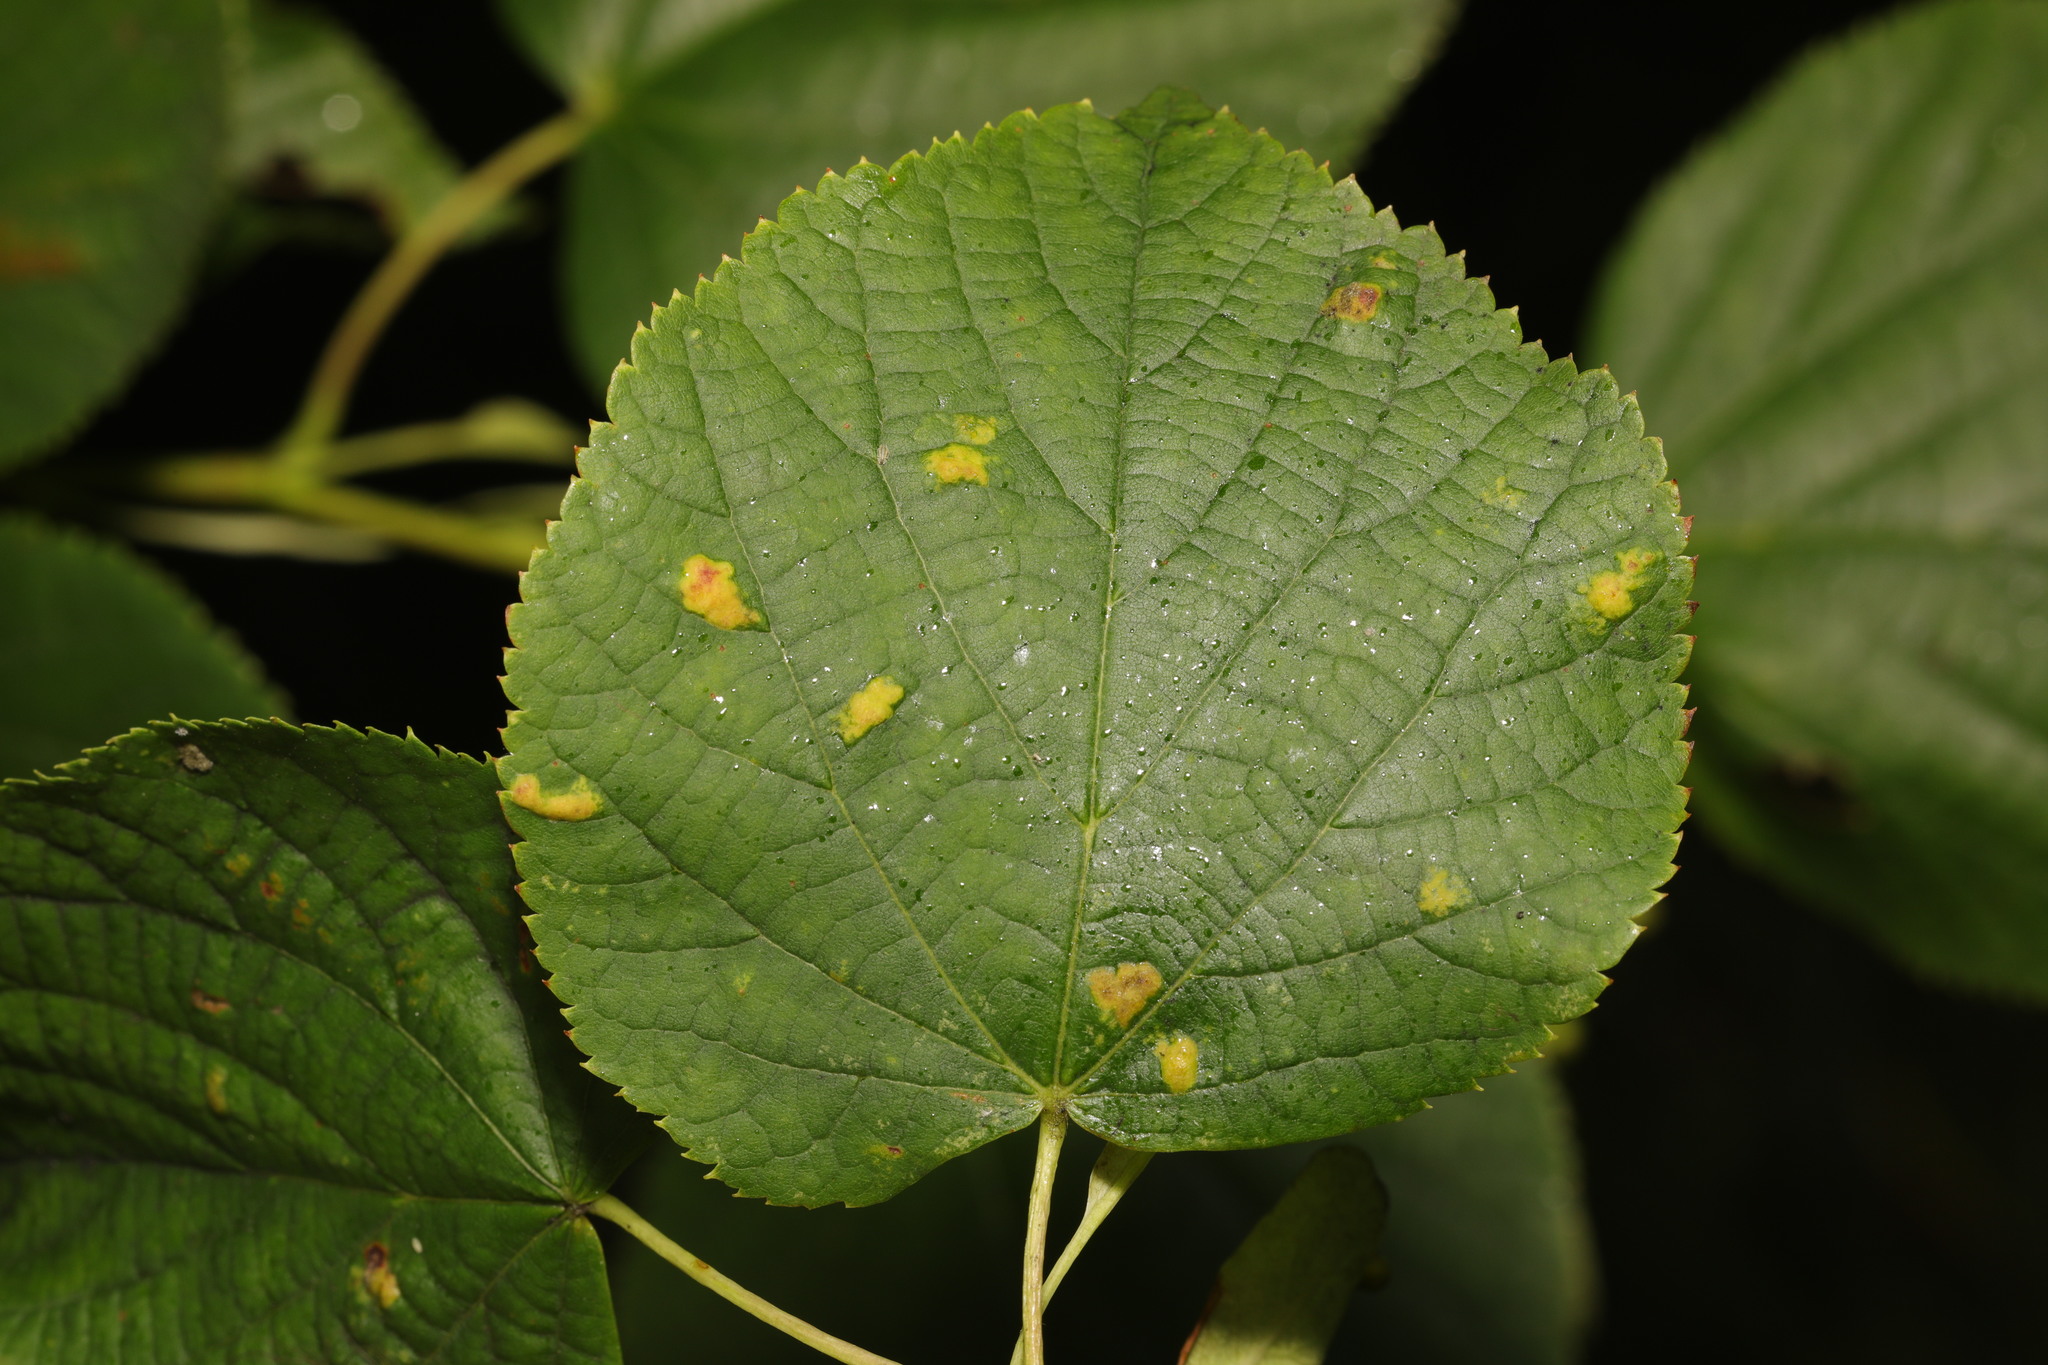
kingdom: Animalia
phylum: Arthropoda
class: Arachnida
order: Trombidiformes
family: Eriophyidae
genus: Eriophyes
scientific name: Eriophyes leiosoma
